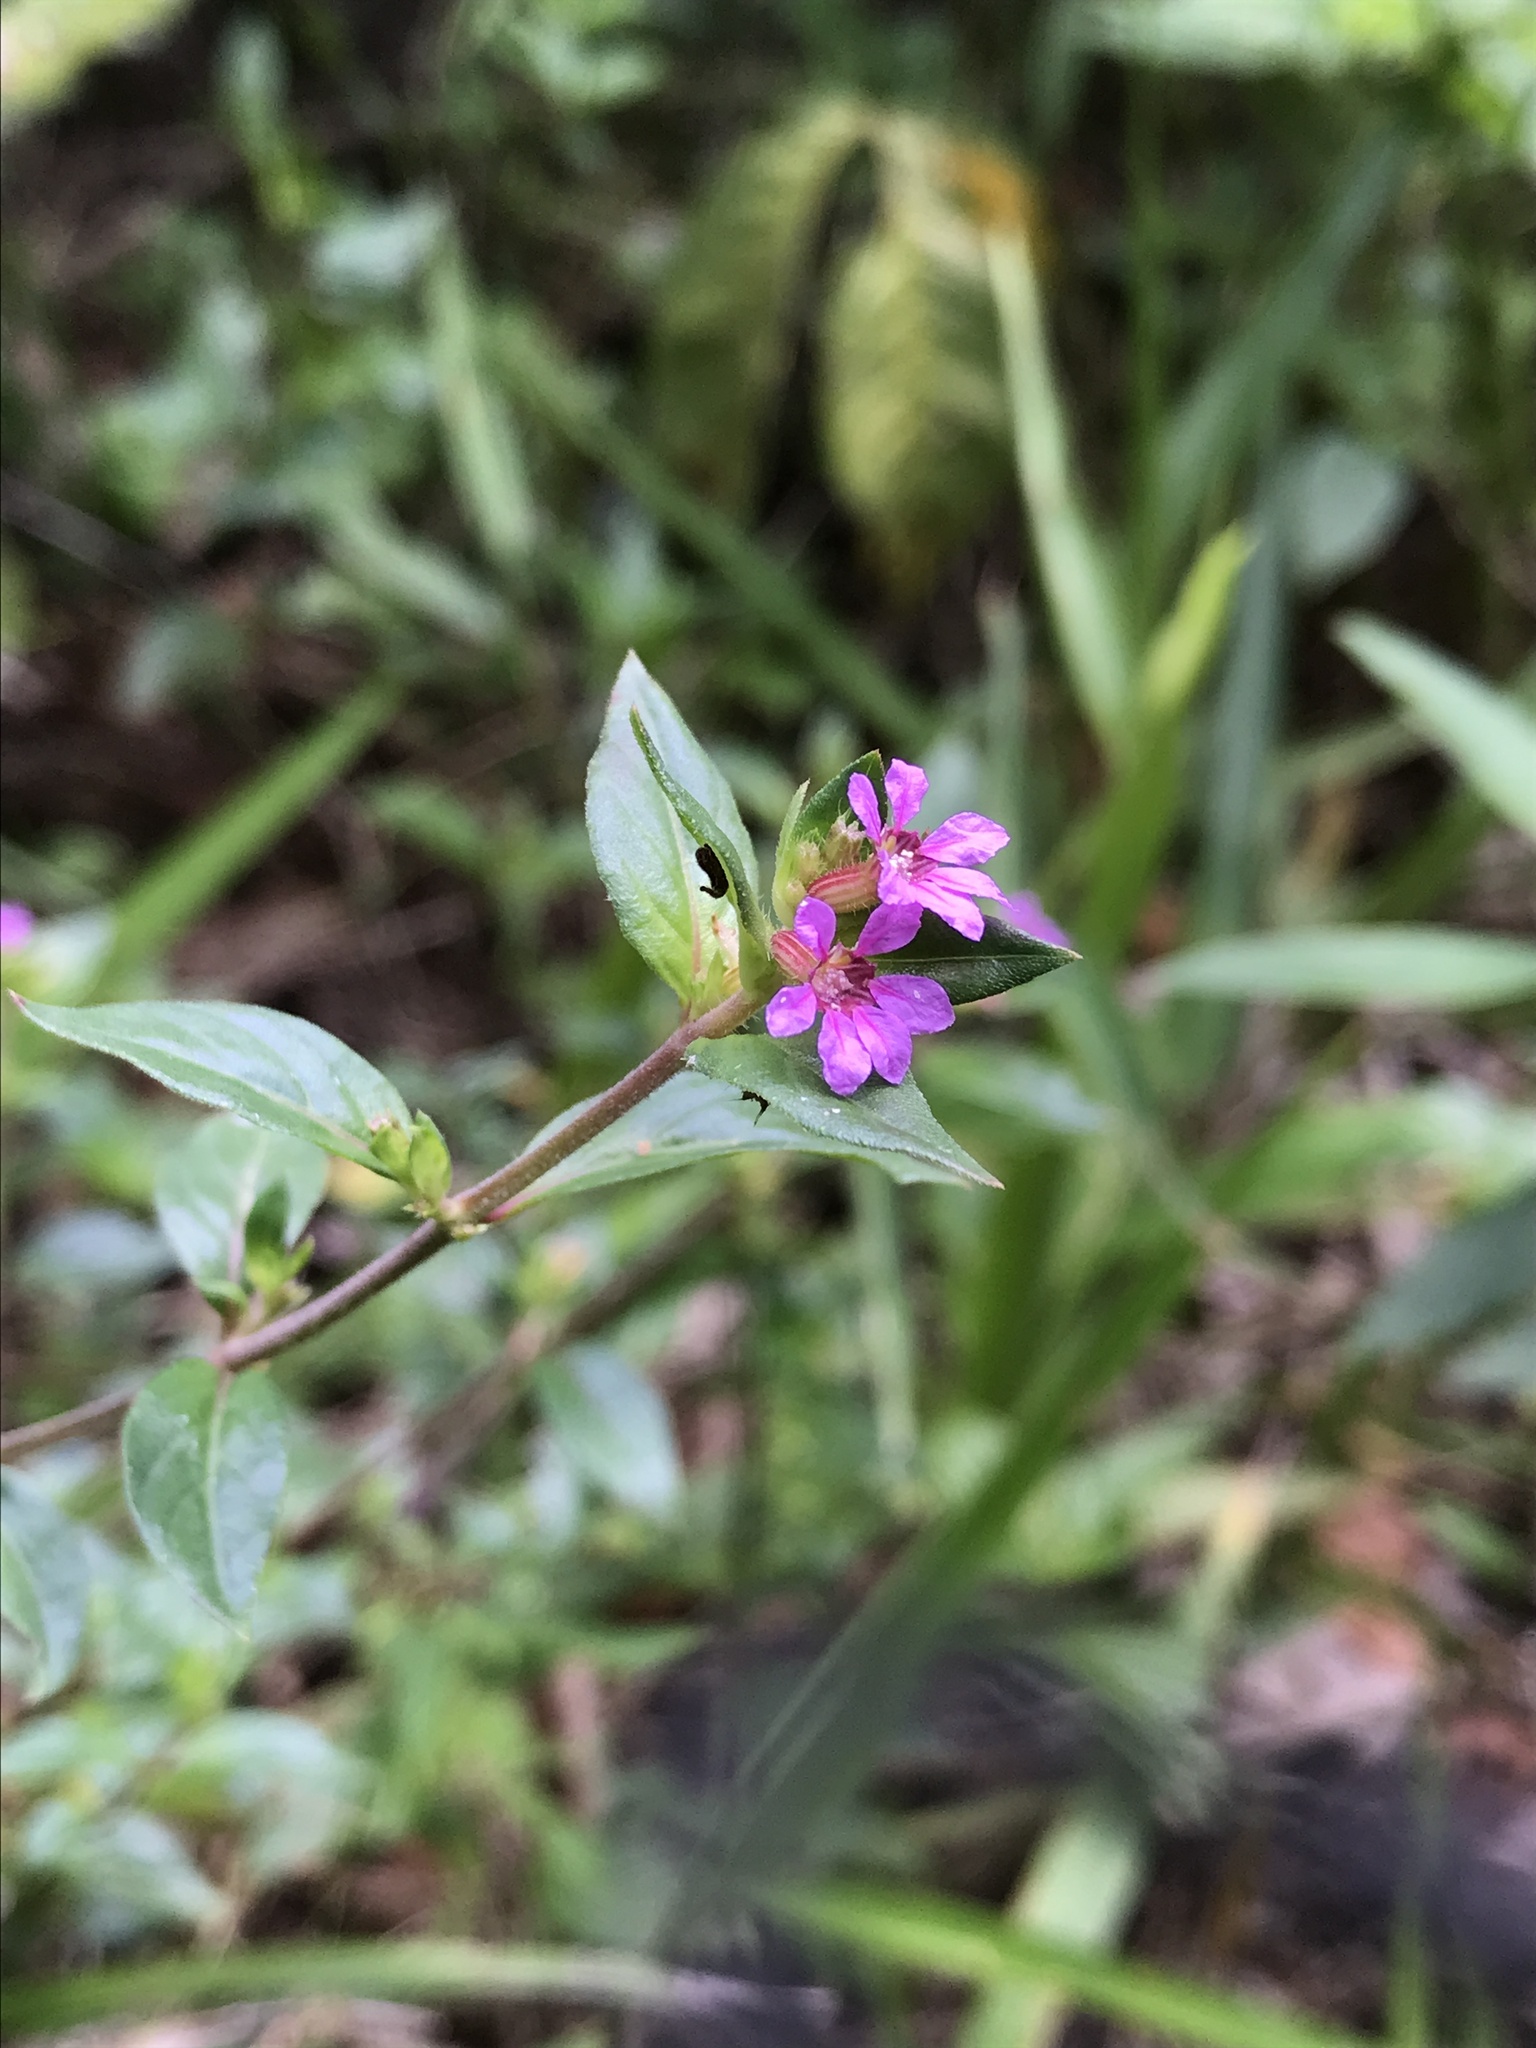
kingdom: Plantae
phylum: Tracheophyta
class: Magnoliopsida
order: Myrtales
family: Lythraceae
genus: Cuphea
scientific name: Cuphea strigulosa
